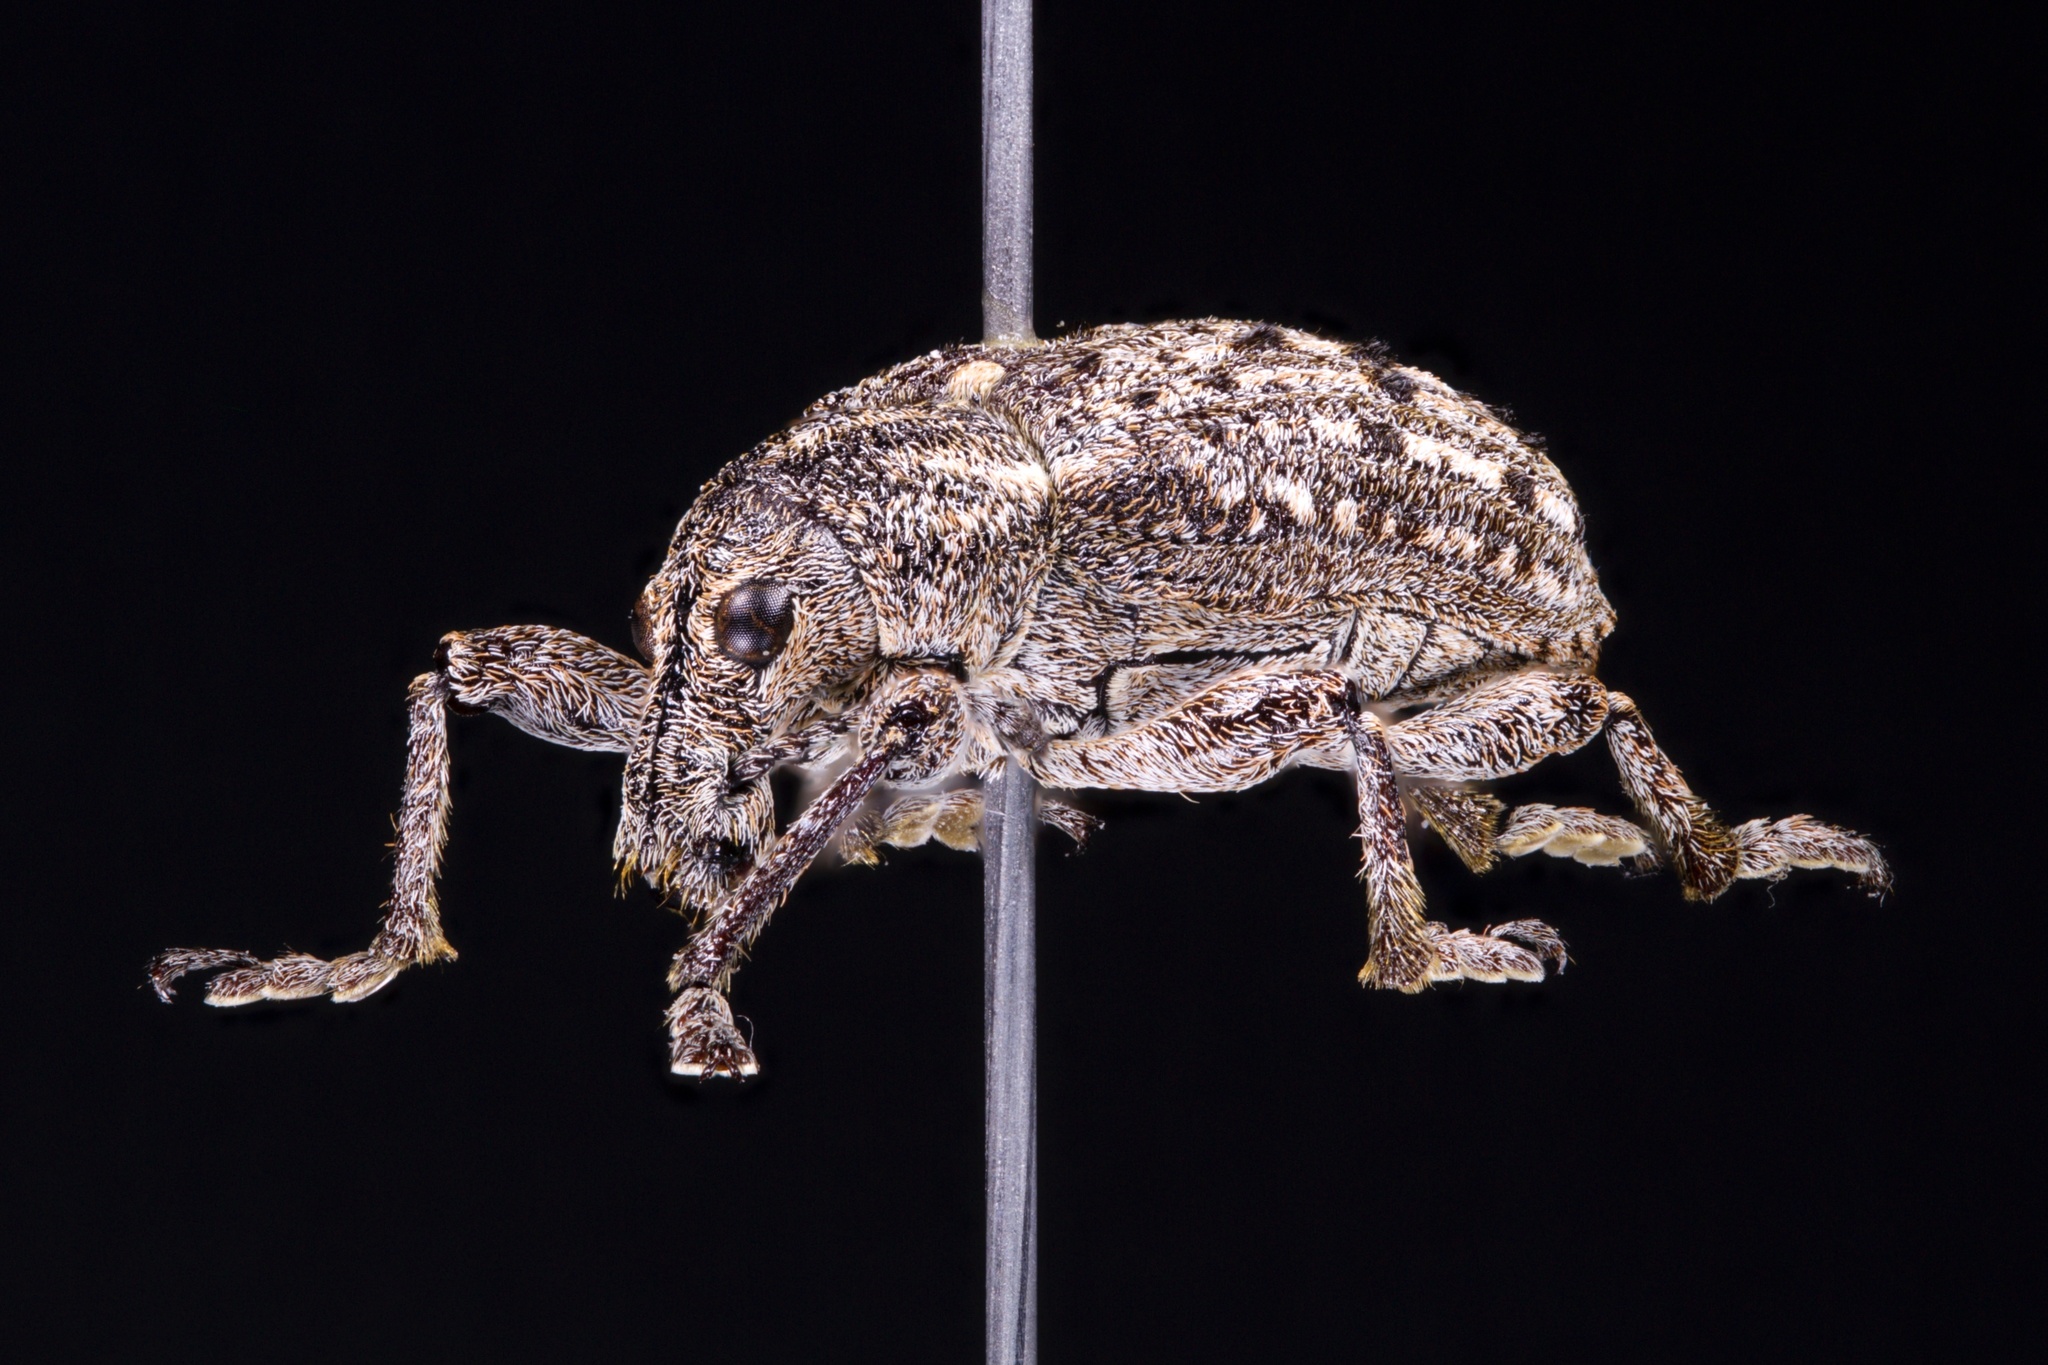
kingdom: Animalia
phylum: Arthropoda
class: Insecta
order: Coleoptera
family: Ithyceridae
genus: Ithycerus
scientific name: Ithycerus noveboracensis
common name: New york weevil
